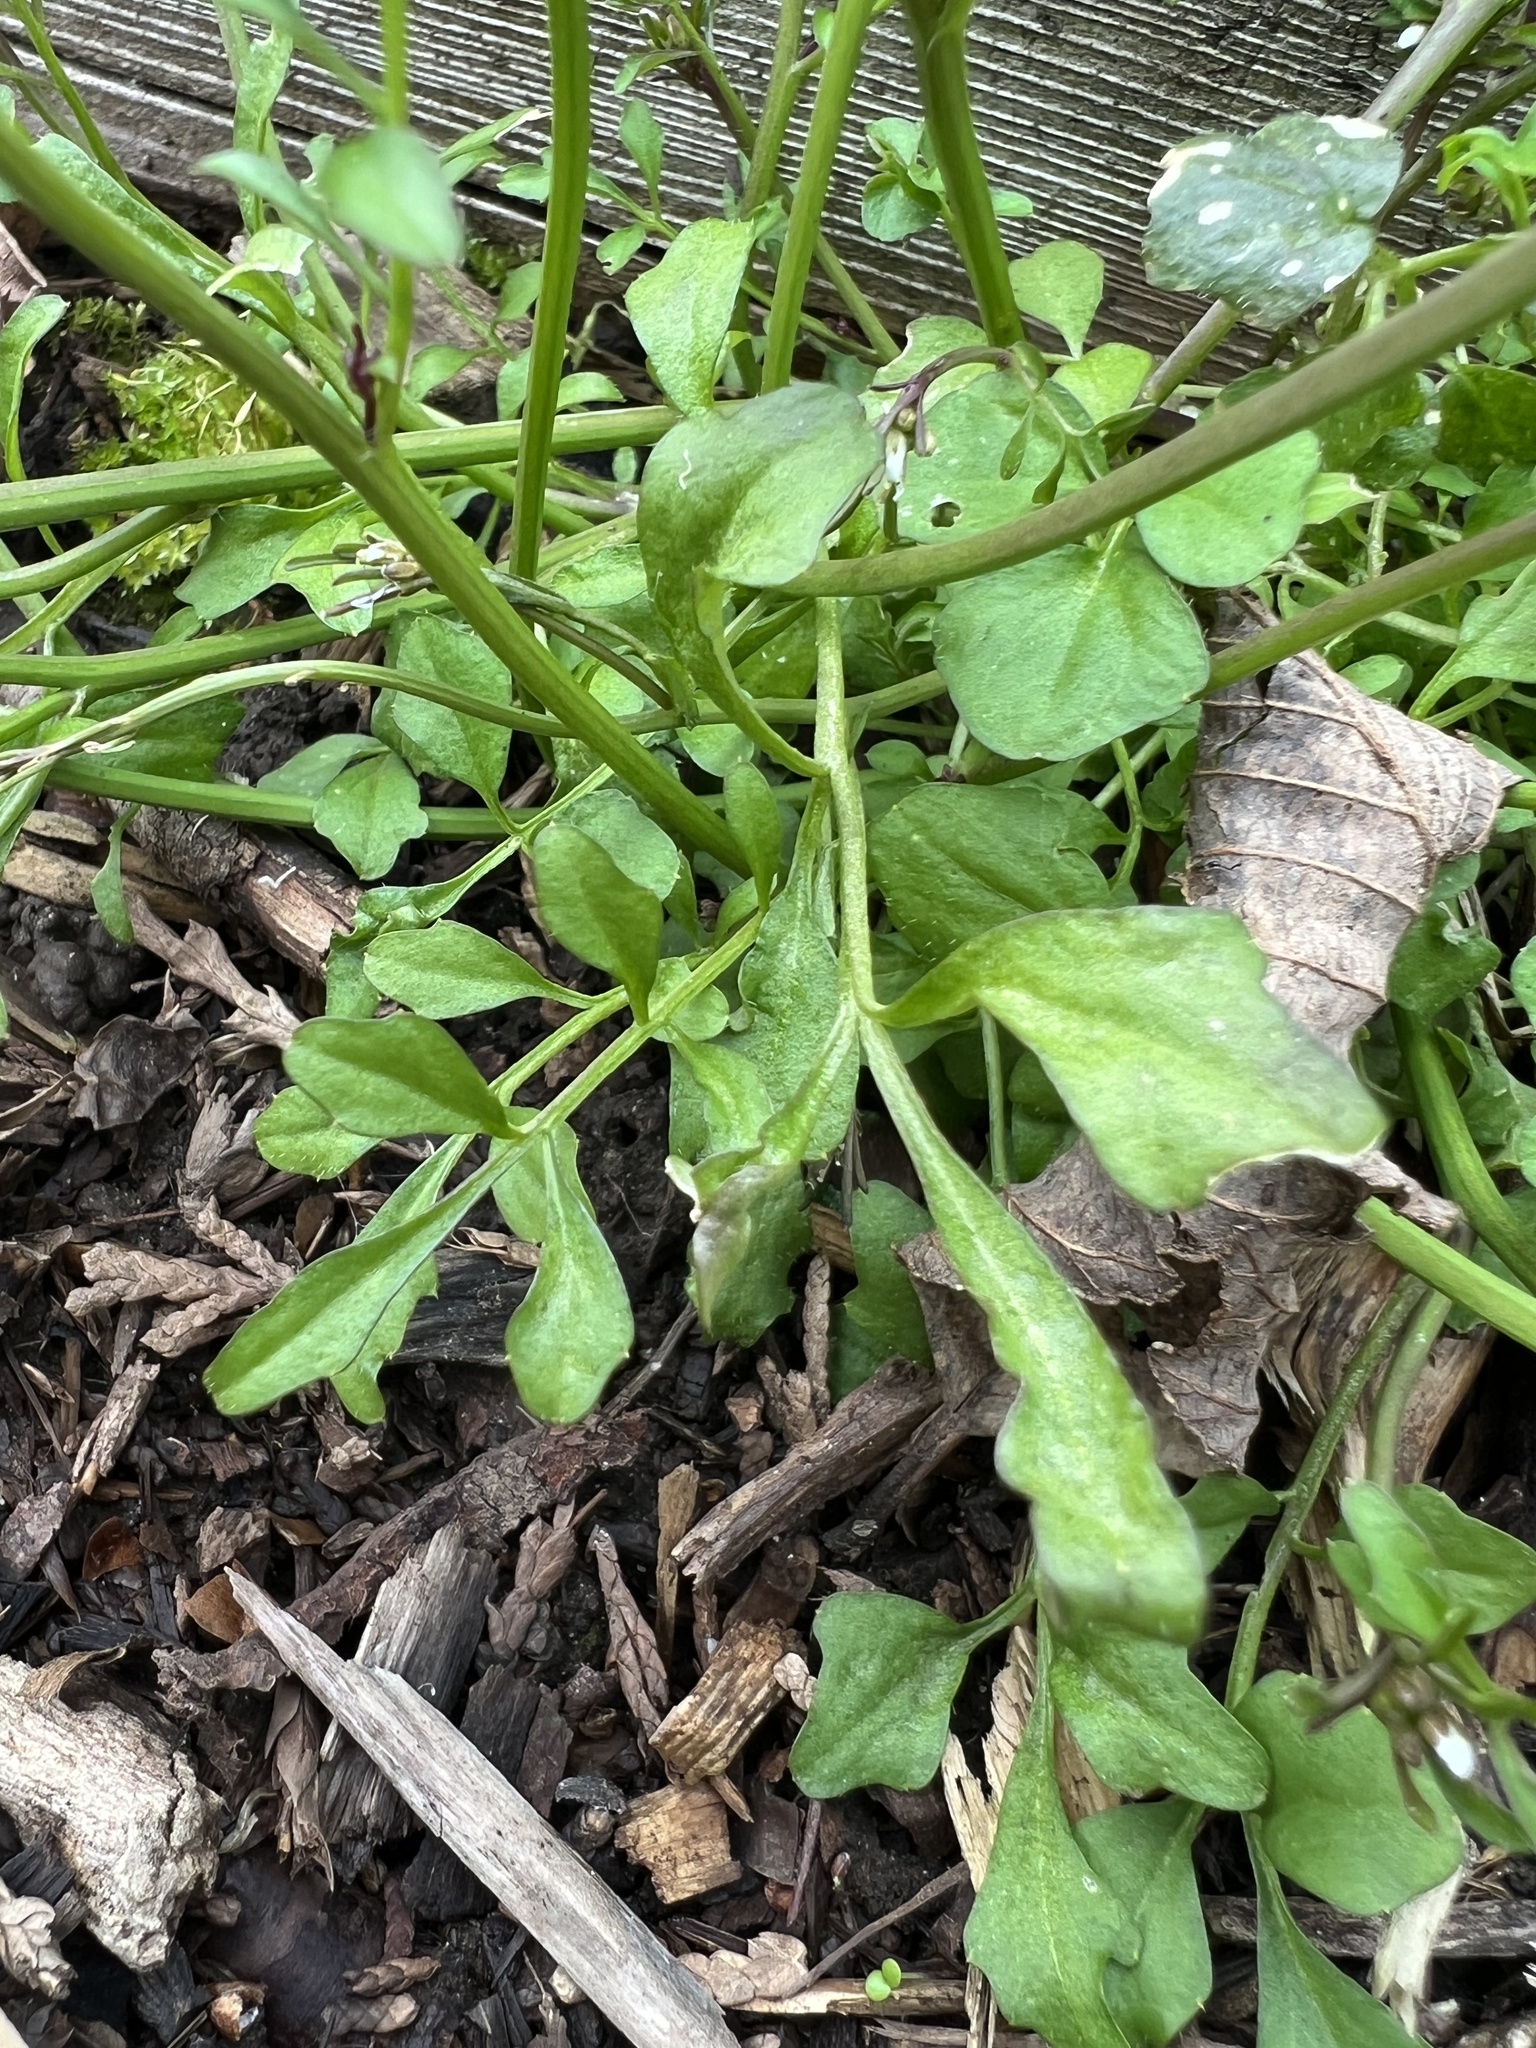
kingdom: Plantae
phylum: Tracheophyta
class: Magnoliopsida
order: Brassicales
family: Brassicaceae
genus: Cardamine
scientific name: Cardamine hirsuta
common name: Hairy bittercress
